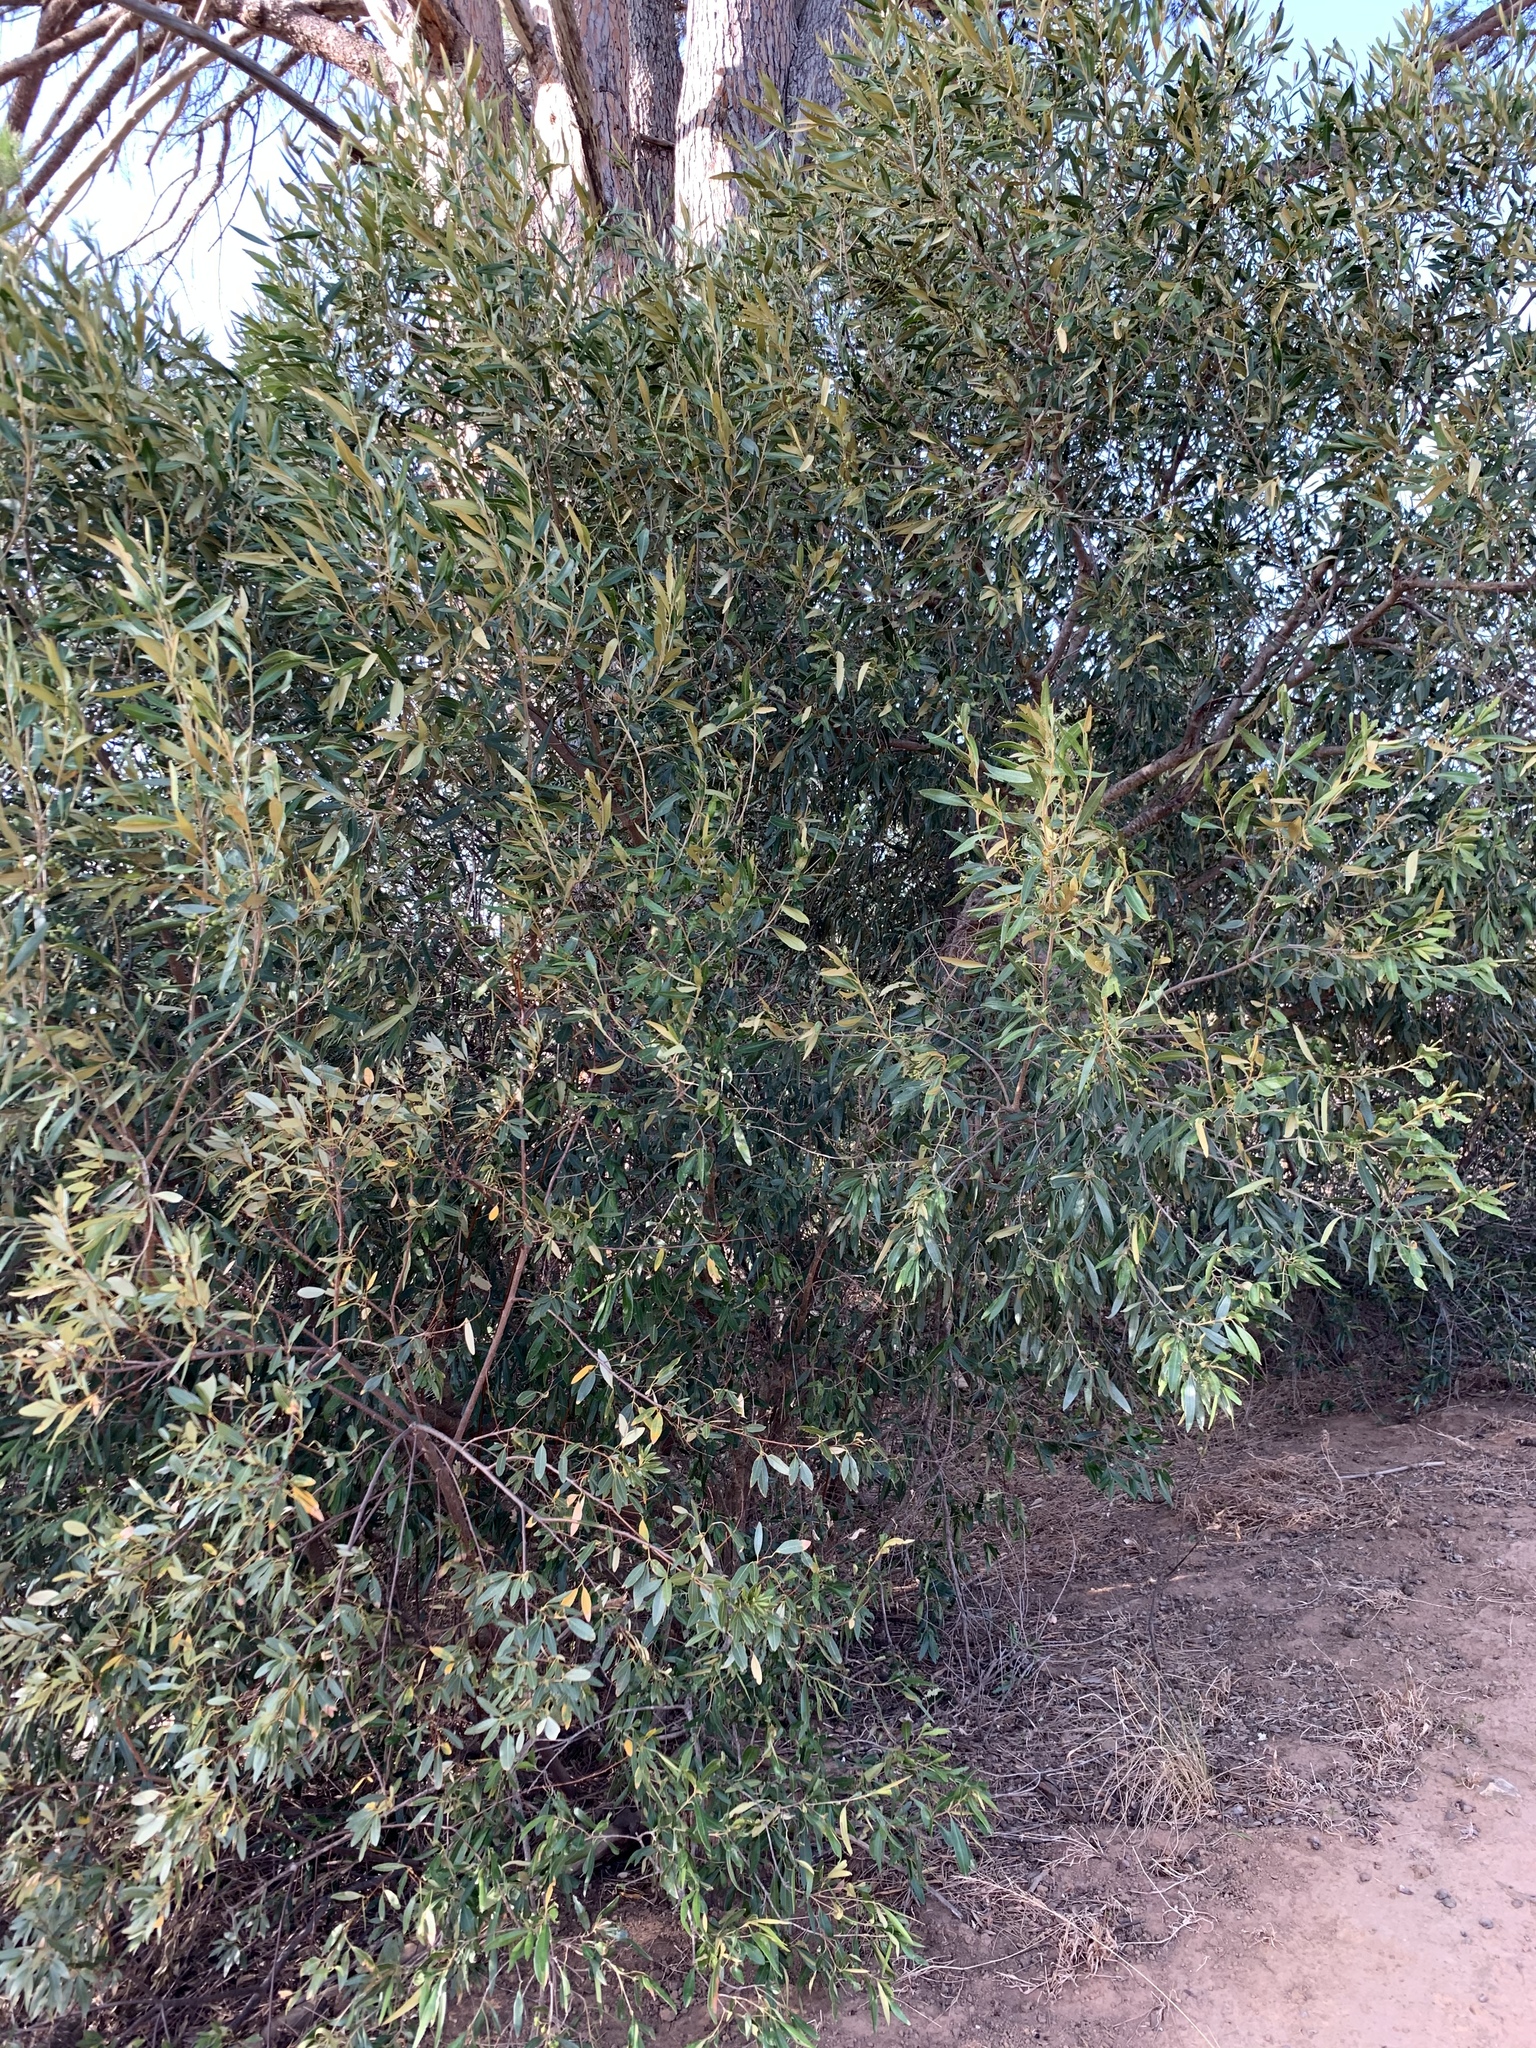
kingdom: Plantae
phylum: Tracheophyta
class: Magnoliopsida
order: Lamiales
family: Oleaceae
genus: Olea
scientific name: Olea europaea
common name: Olive
